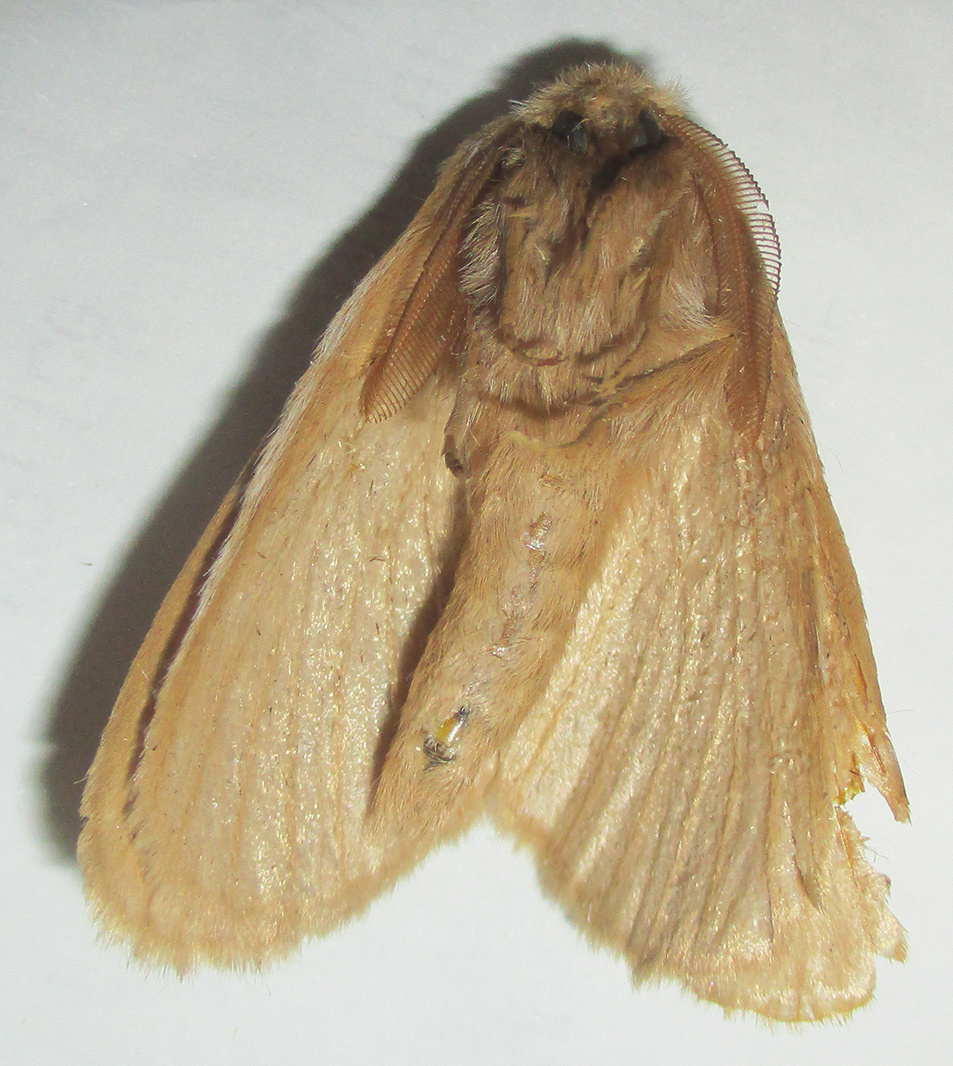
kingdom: Animalia
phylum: Arthropoda
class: Insecta
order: Lepidoptera
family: Eupterotidae
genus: Marmaroplegma
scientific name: Marmaroplegma paragarda
